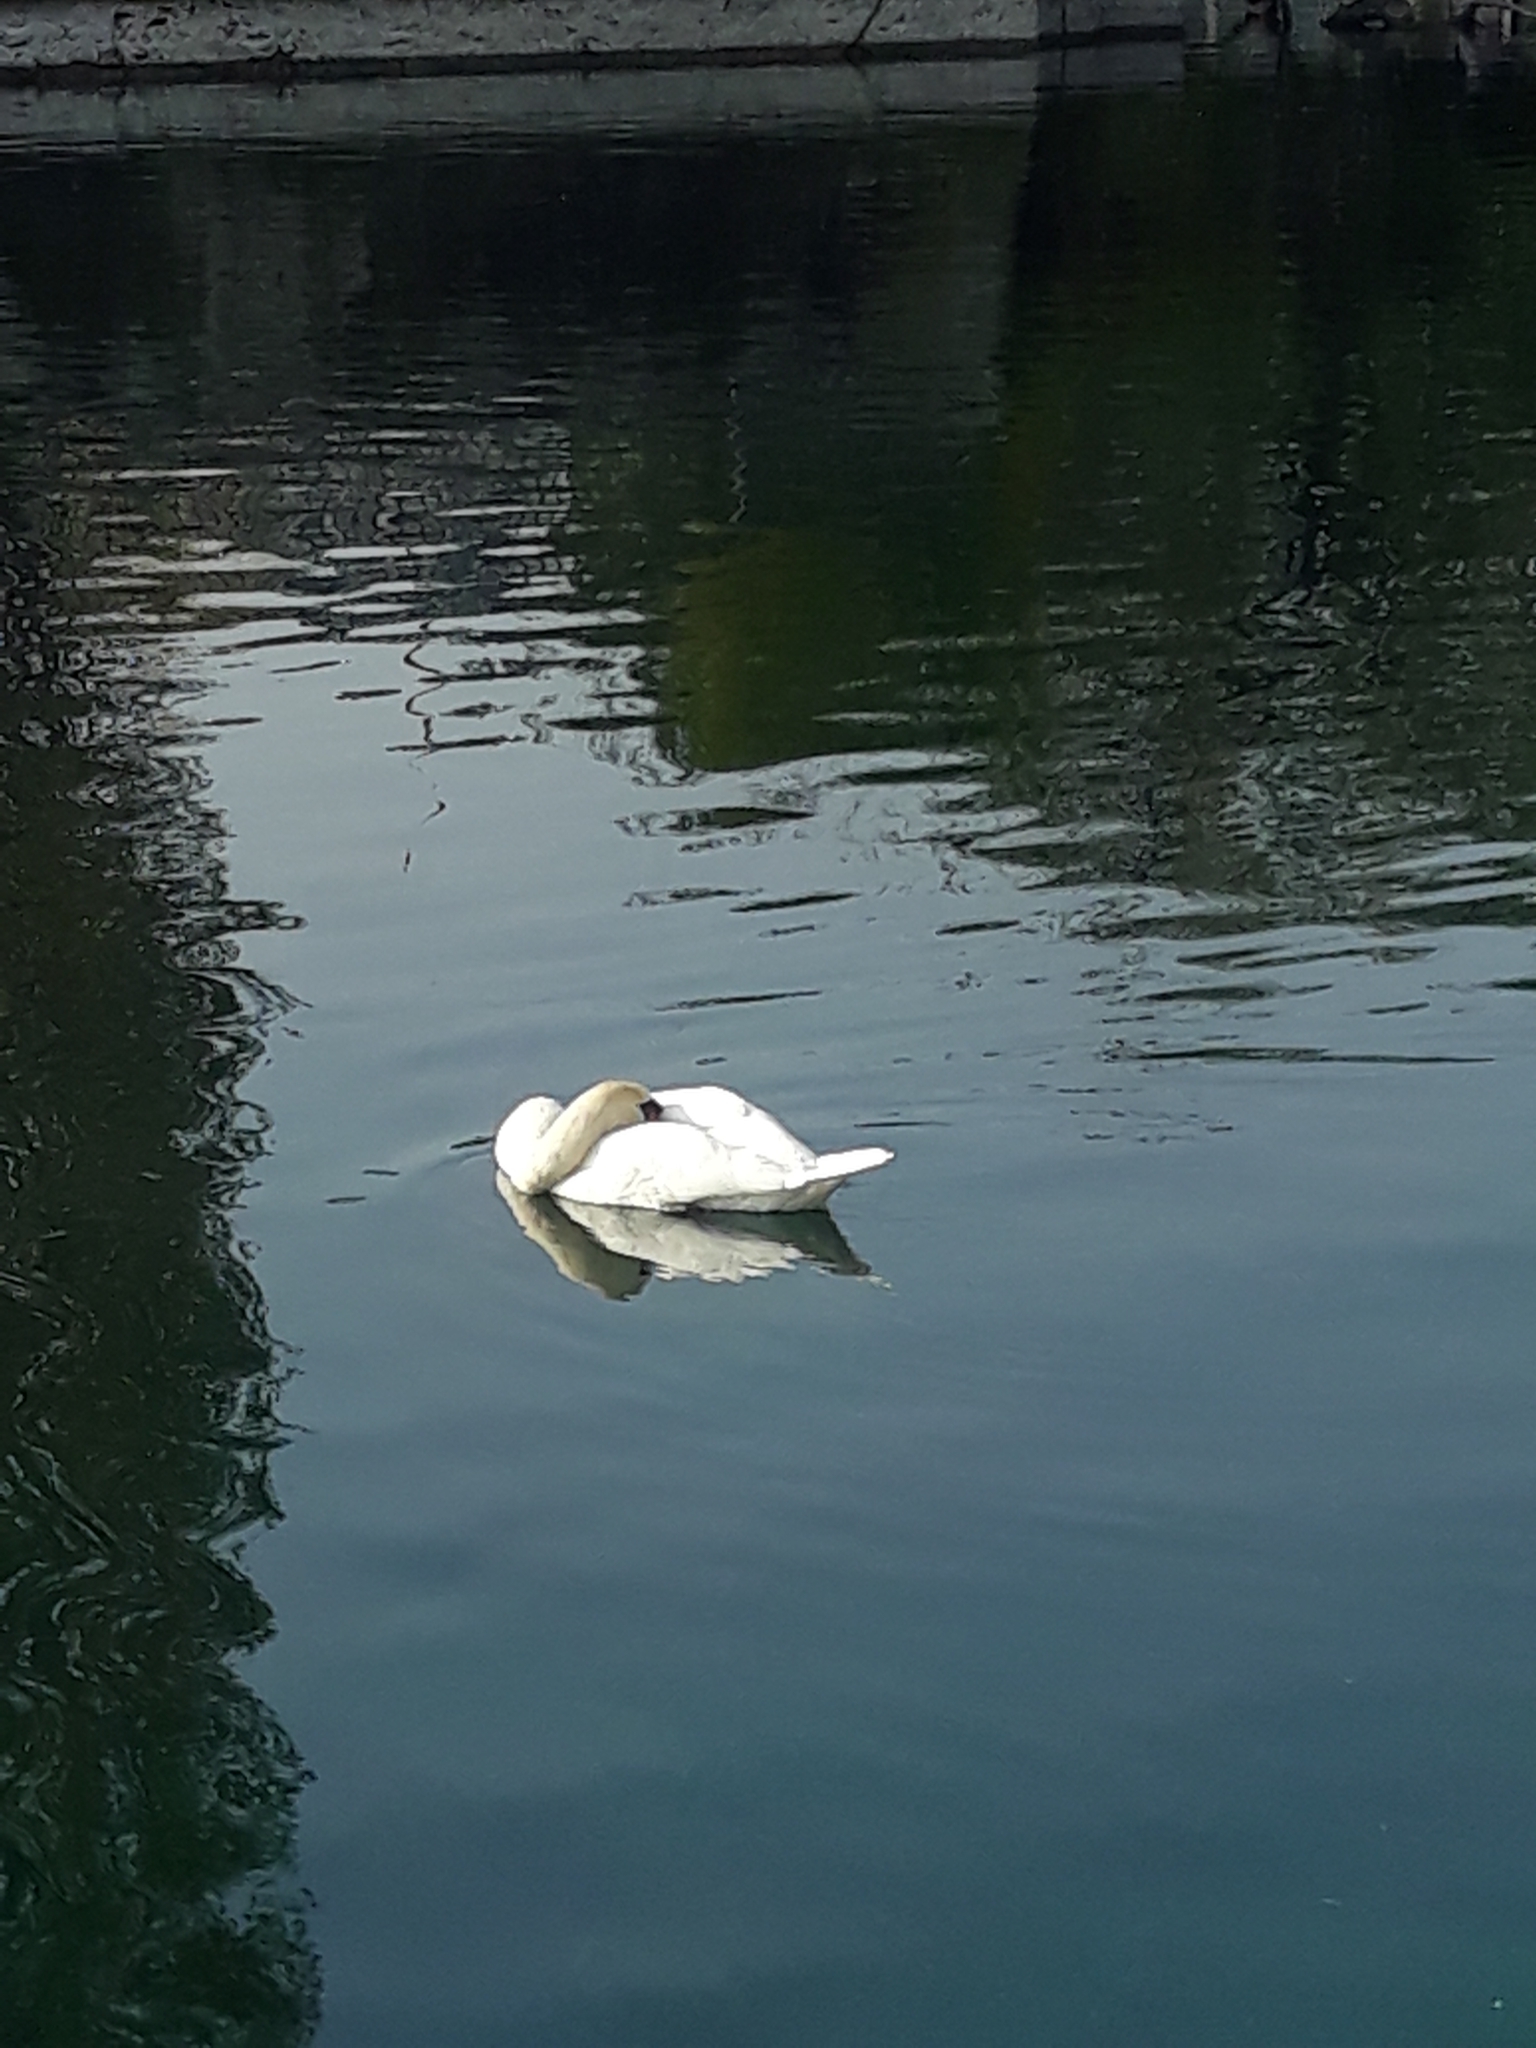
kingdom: Animalia
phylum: Chordata
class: Aves
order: Anseriformes
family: Anatidae
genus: Cygnus
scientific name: Cygnus olor
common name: Mute swan
